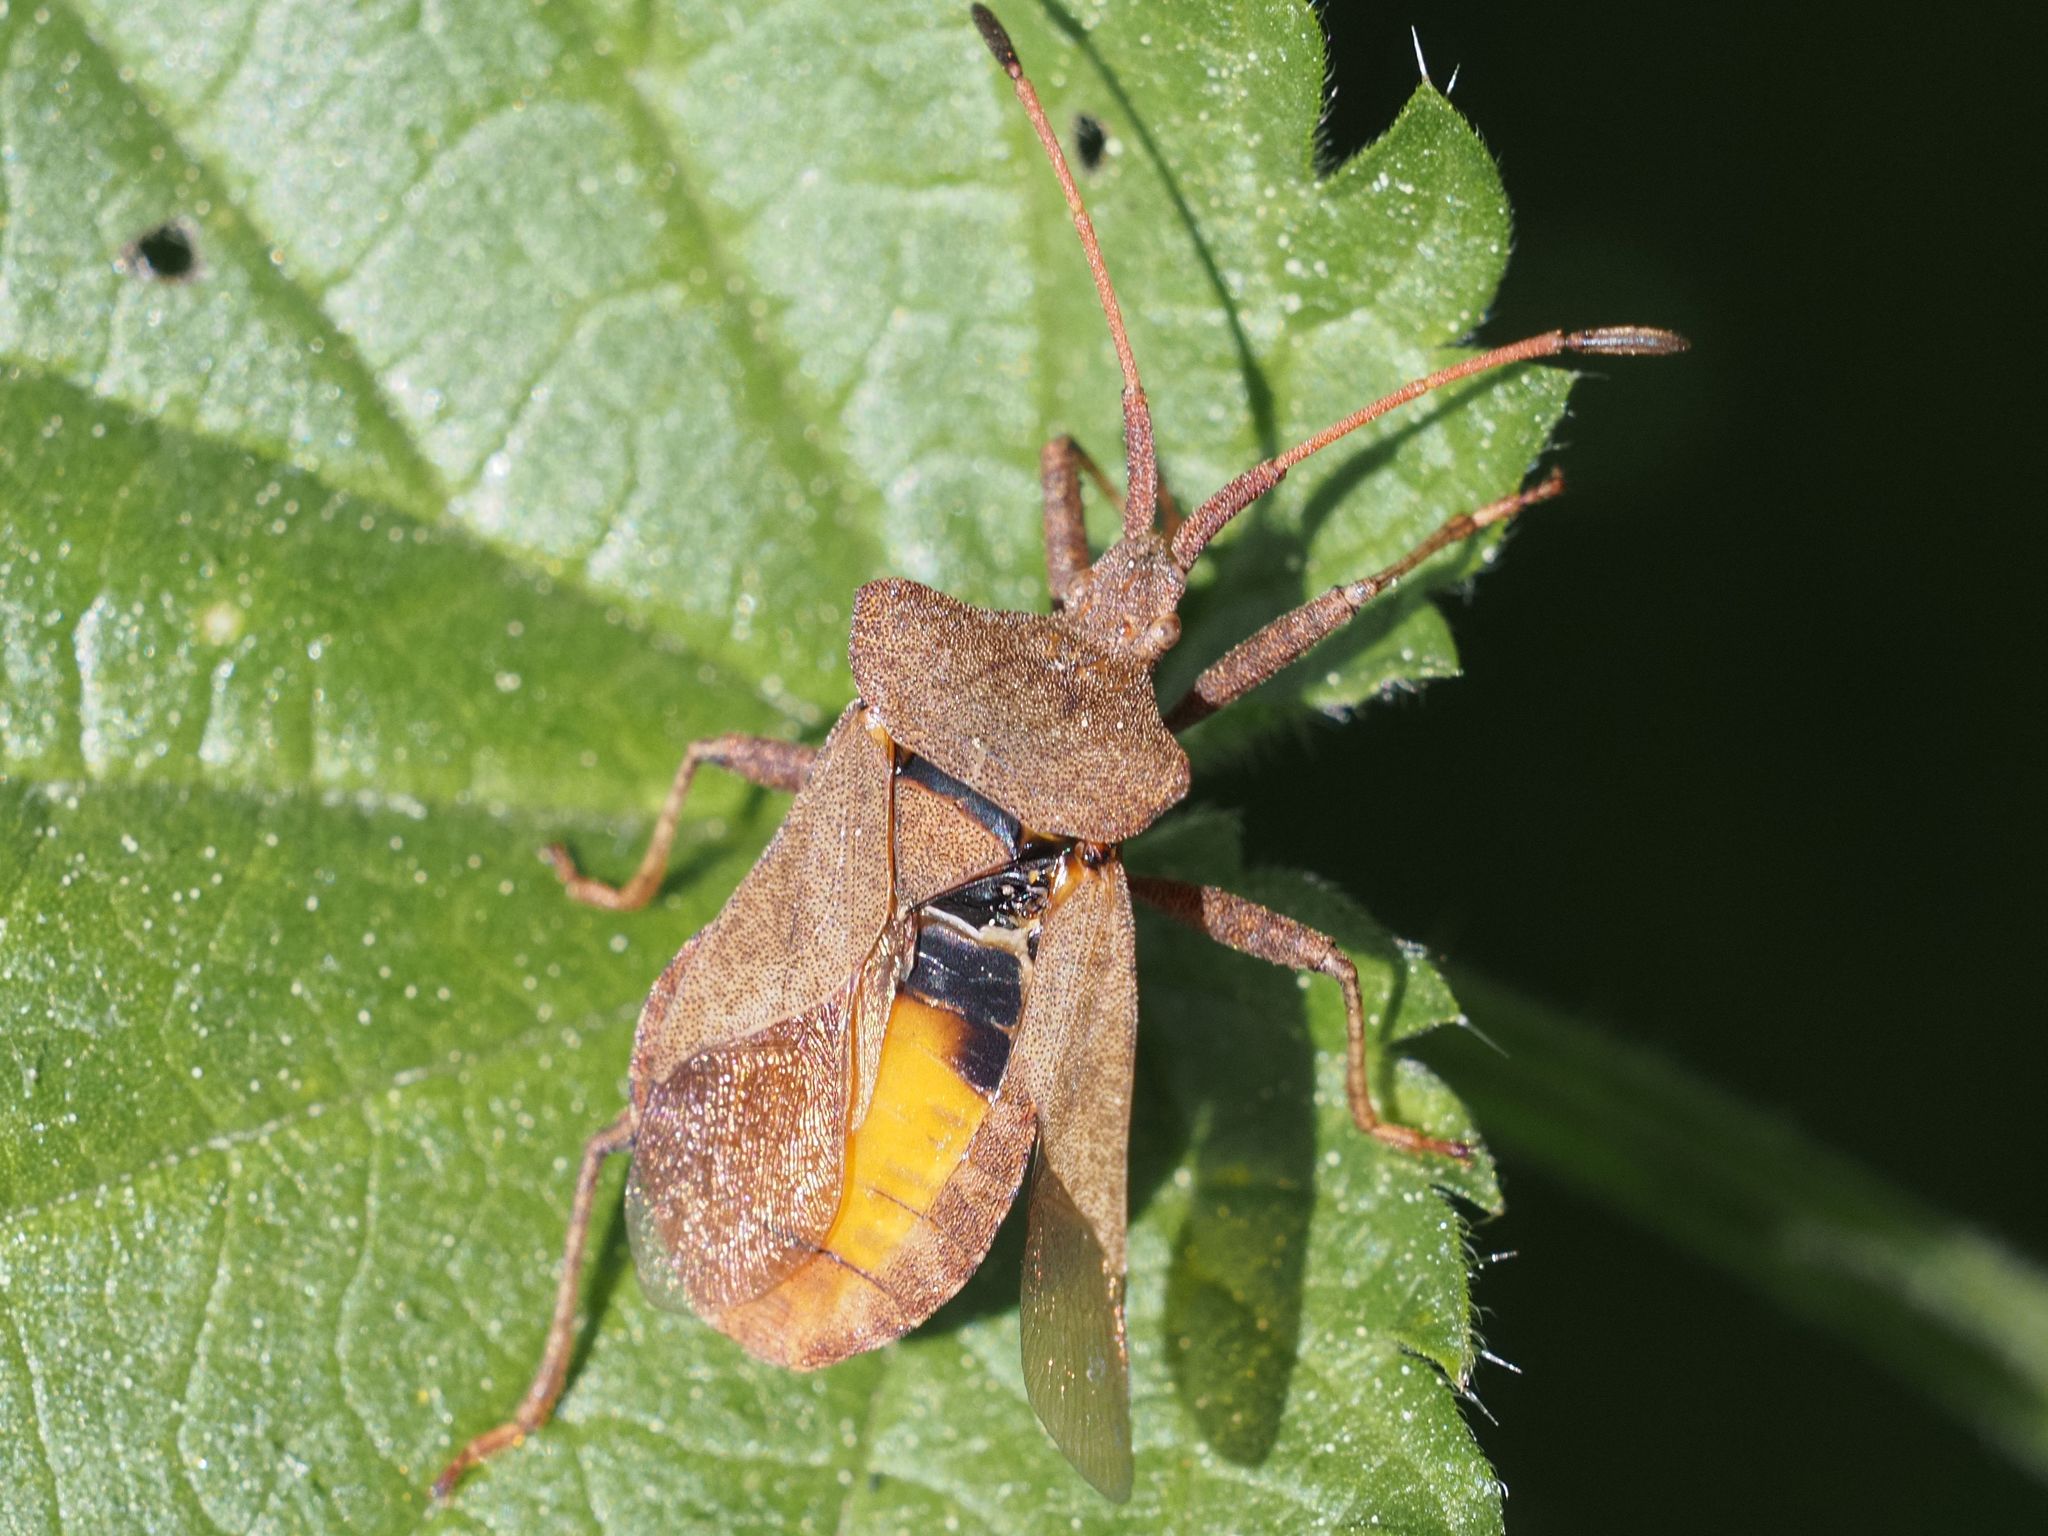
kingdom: Animalia
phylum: Arthropoda
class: Insecta
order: Hemiptera
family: Coreidae
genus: Coreus
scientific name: Coreus marginatus
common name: Dock bug
